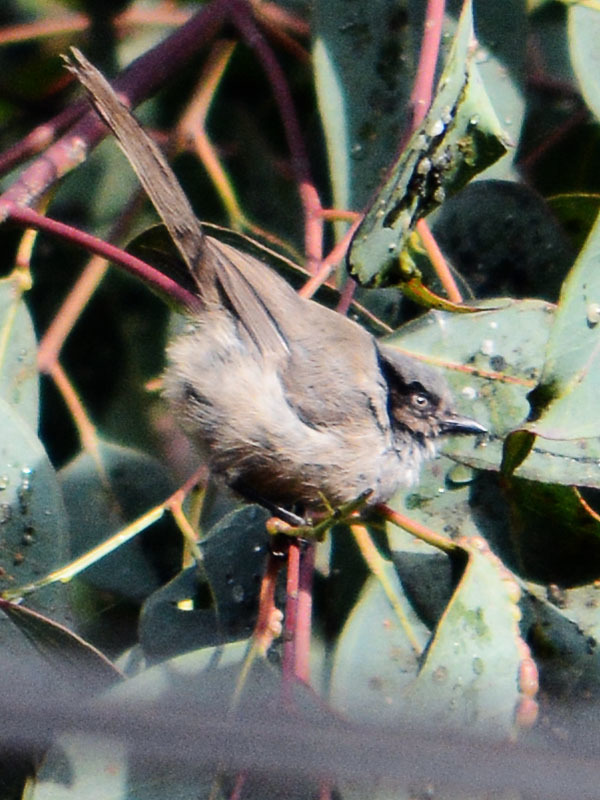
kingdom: Animalia
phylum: Chordata
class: Aves
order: Passeriformes
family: Aegithalidae
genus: Psaltriparus
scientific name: Psaltriparus minimus
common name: American bushtit
